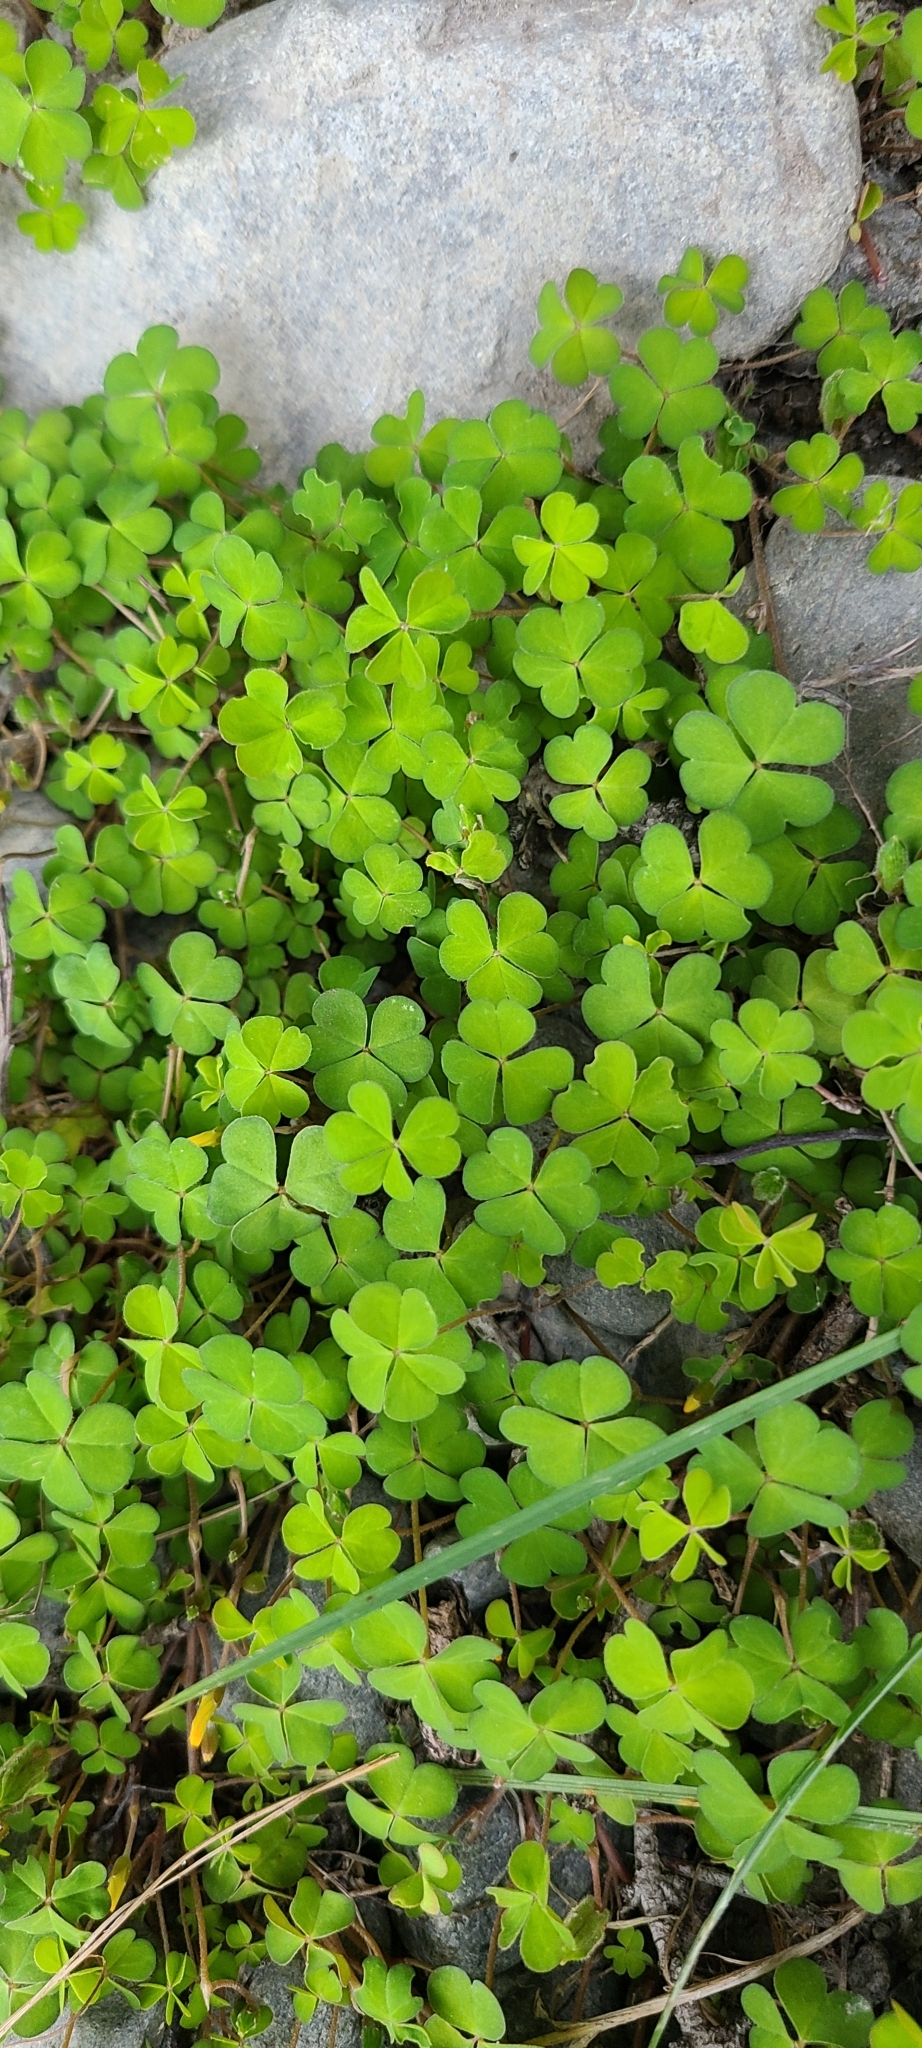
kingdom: Plantae
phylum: Tracheophyta
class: Magnoliopsida
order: Oxalidales
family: Oxalidaceae
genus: Oxalis
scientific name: Oxalis magellanica
